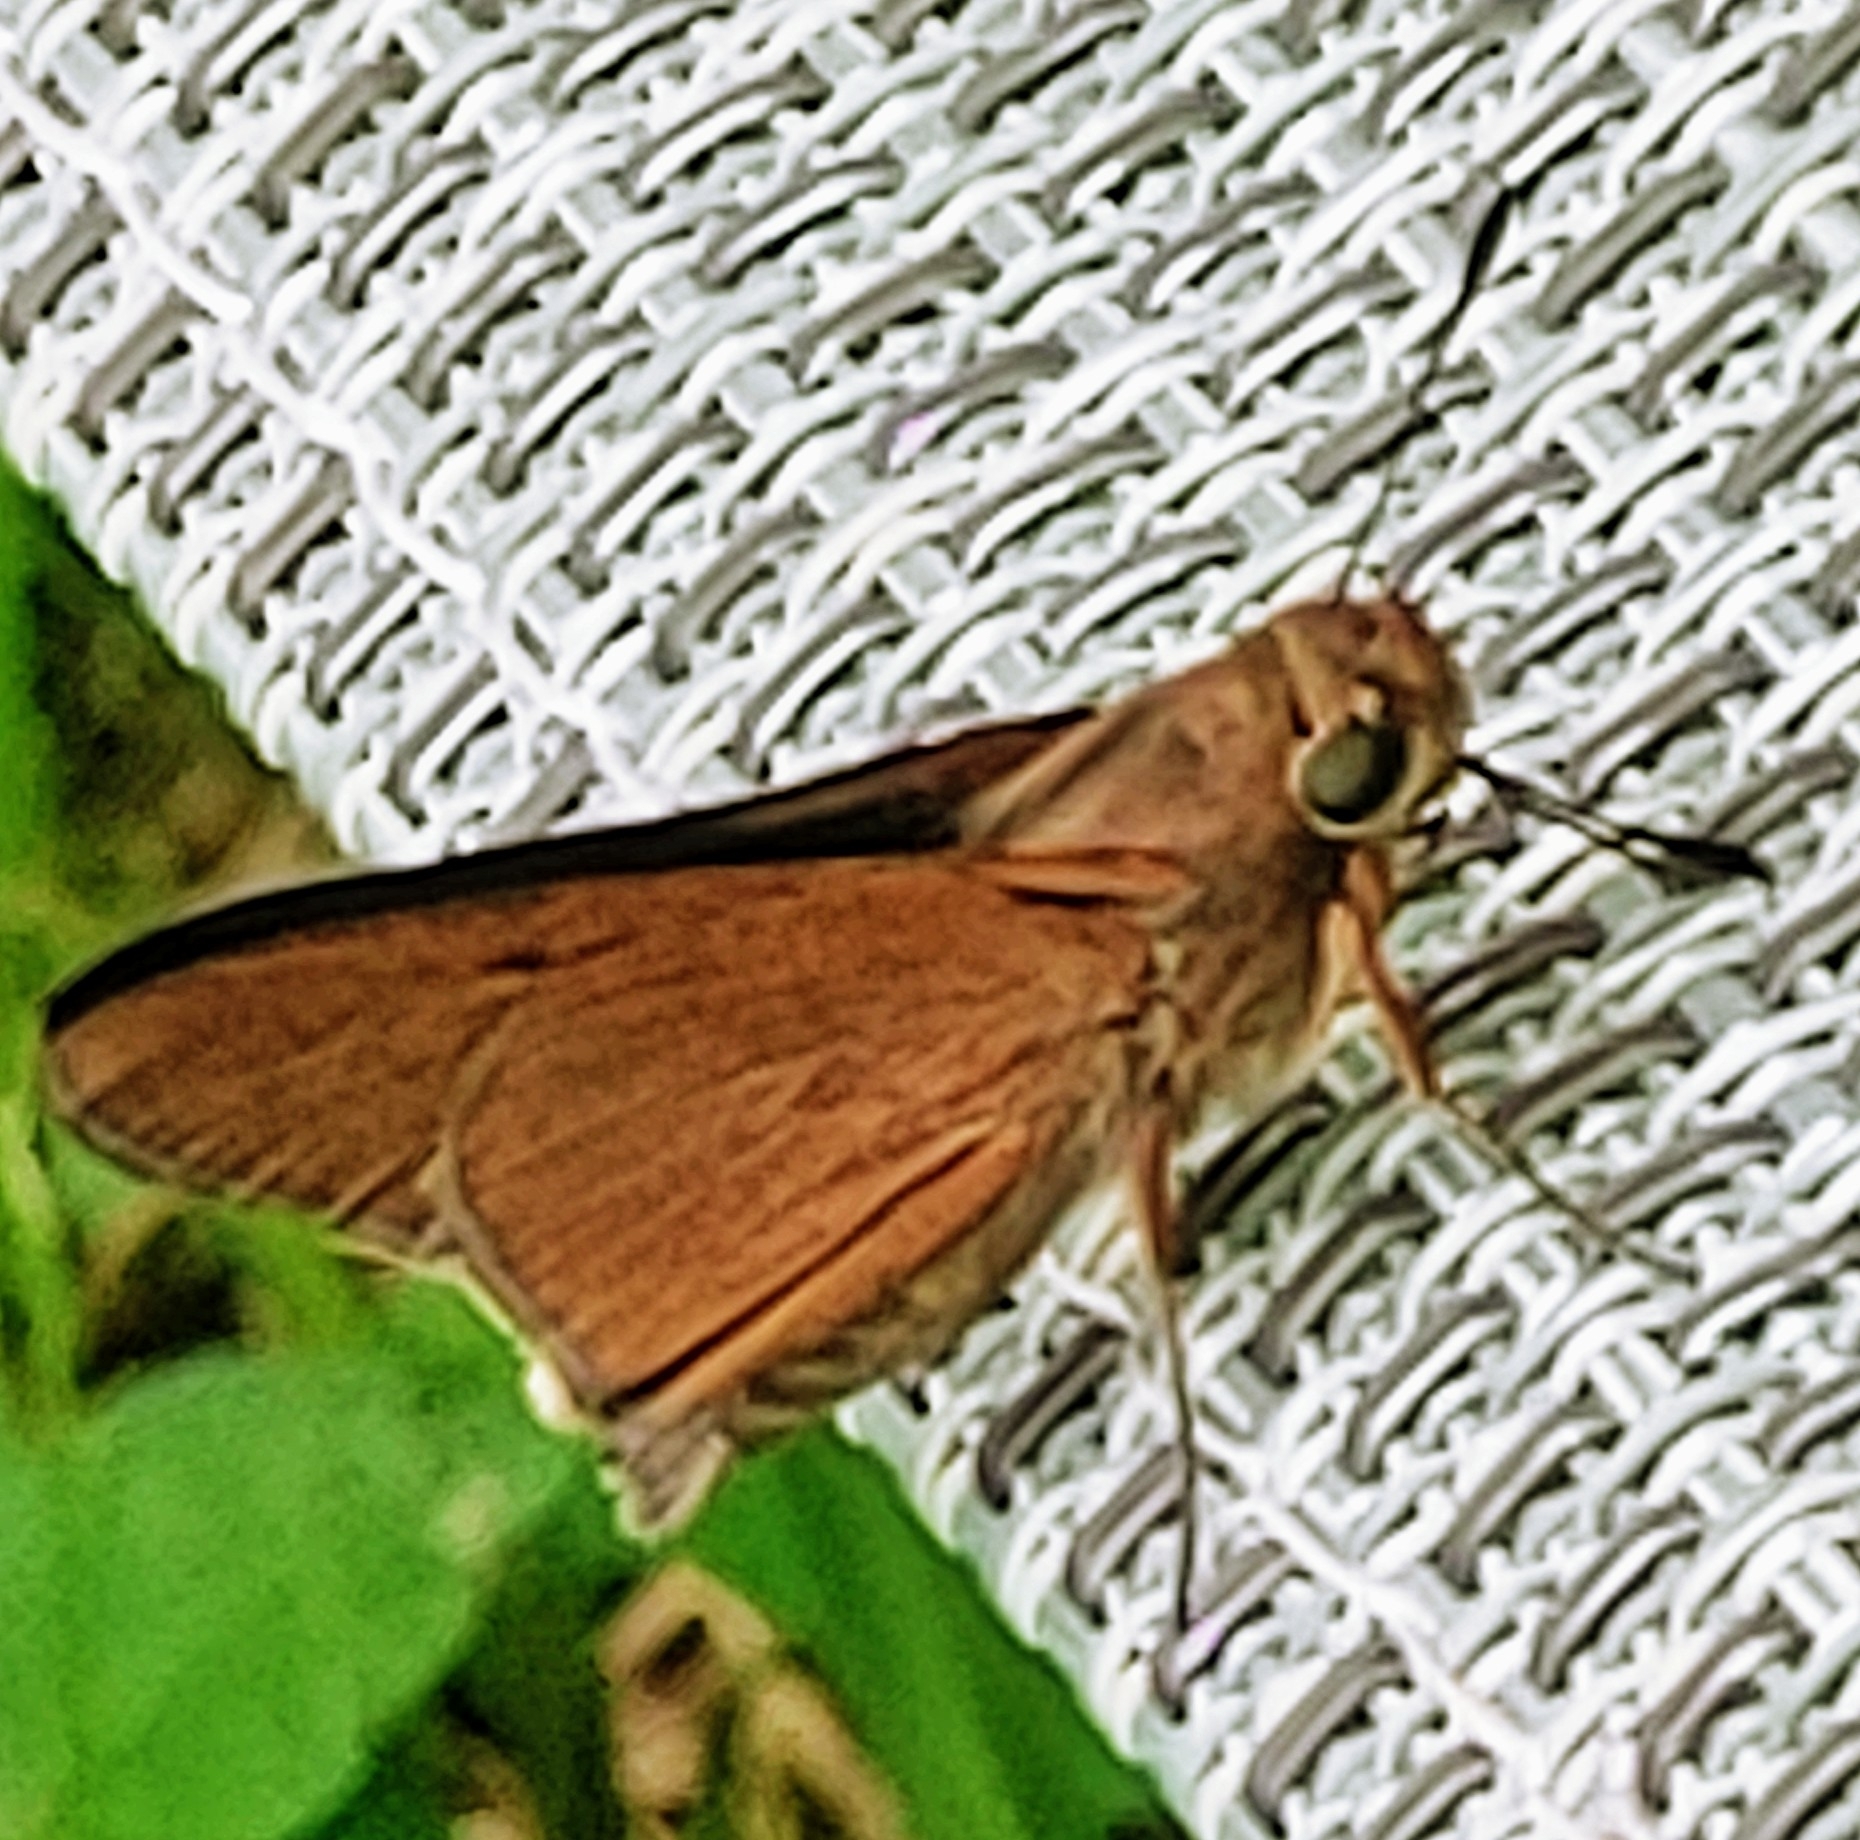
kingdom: Animalia
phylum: Arthropoda
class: Insecta
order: Lepidoptera
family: Hesperiidae
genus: Asbolis
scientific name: Asbolis capucinus
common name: Monk skipper
